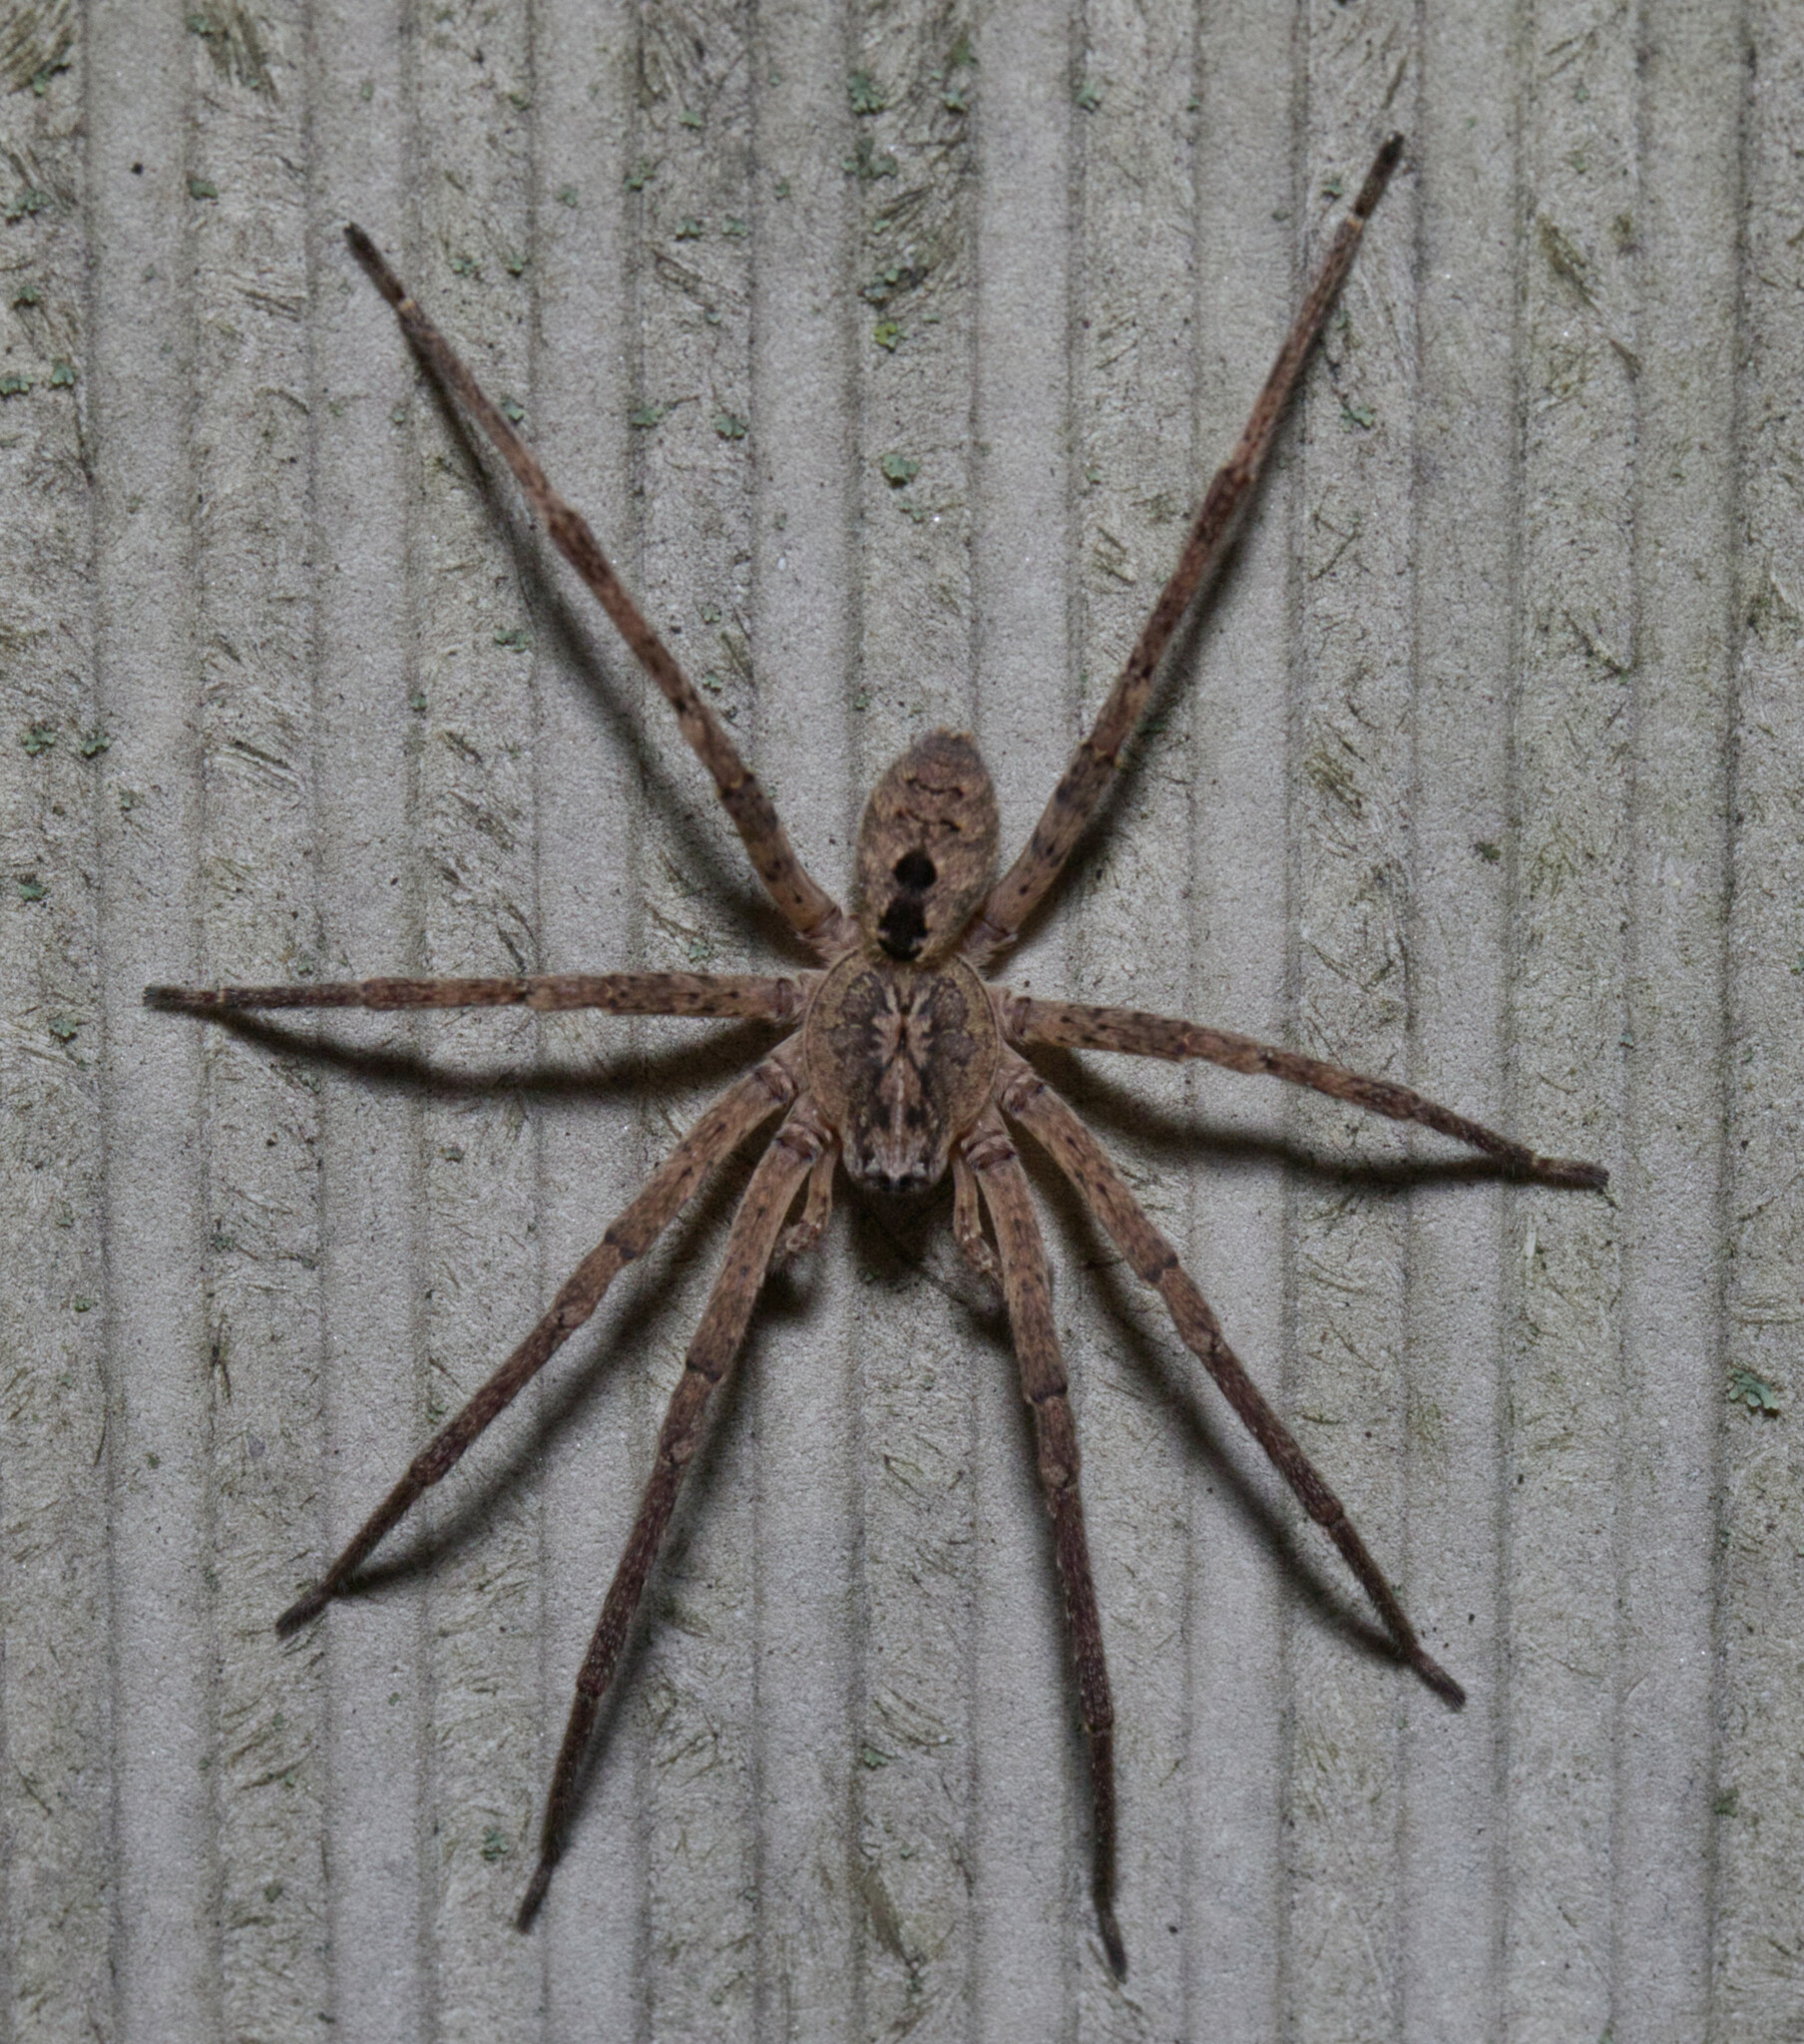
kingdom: Animalia
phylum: Arthropoda
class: Arachnida
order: Araneae
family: Zoropsidae
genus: Zoropsis
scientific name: Zoropsis spinimana
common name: Zoropsid spider
